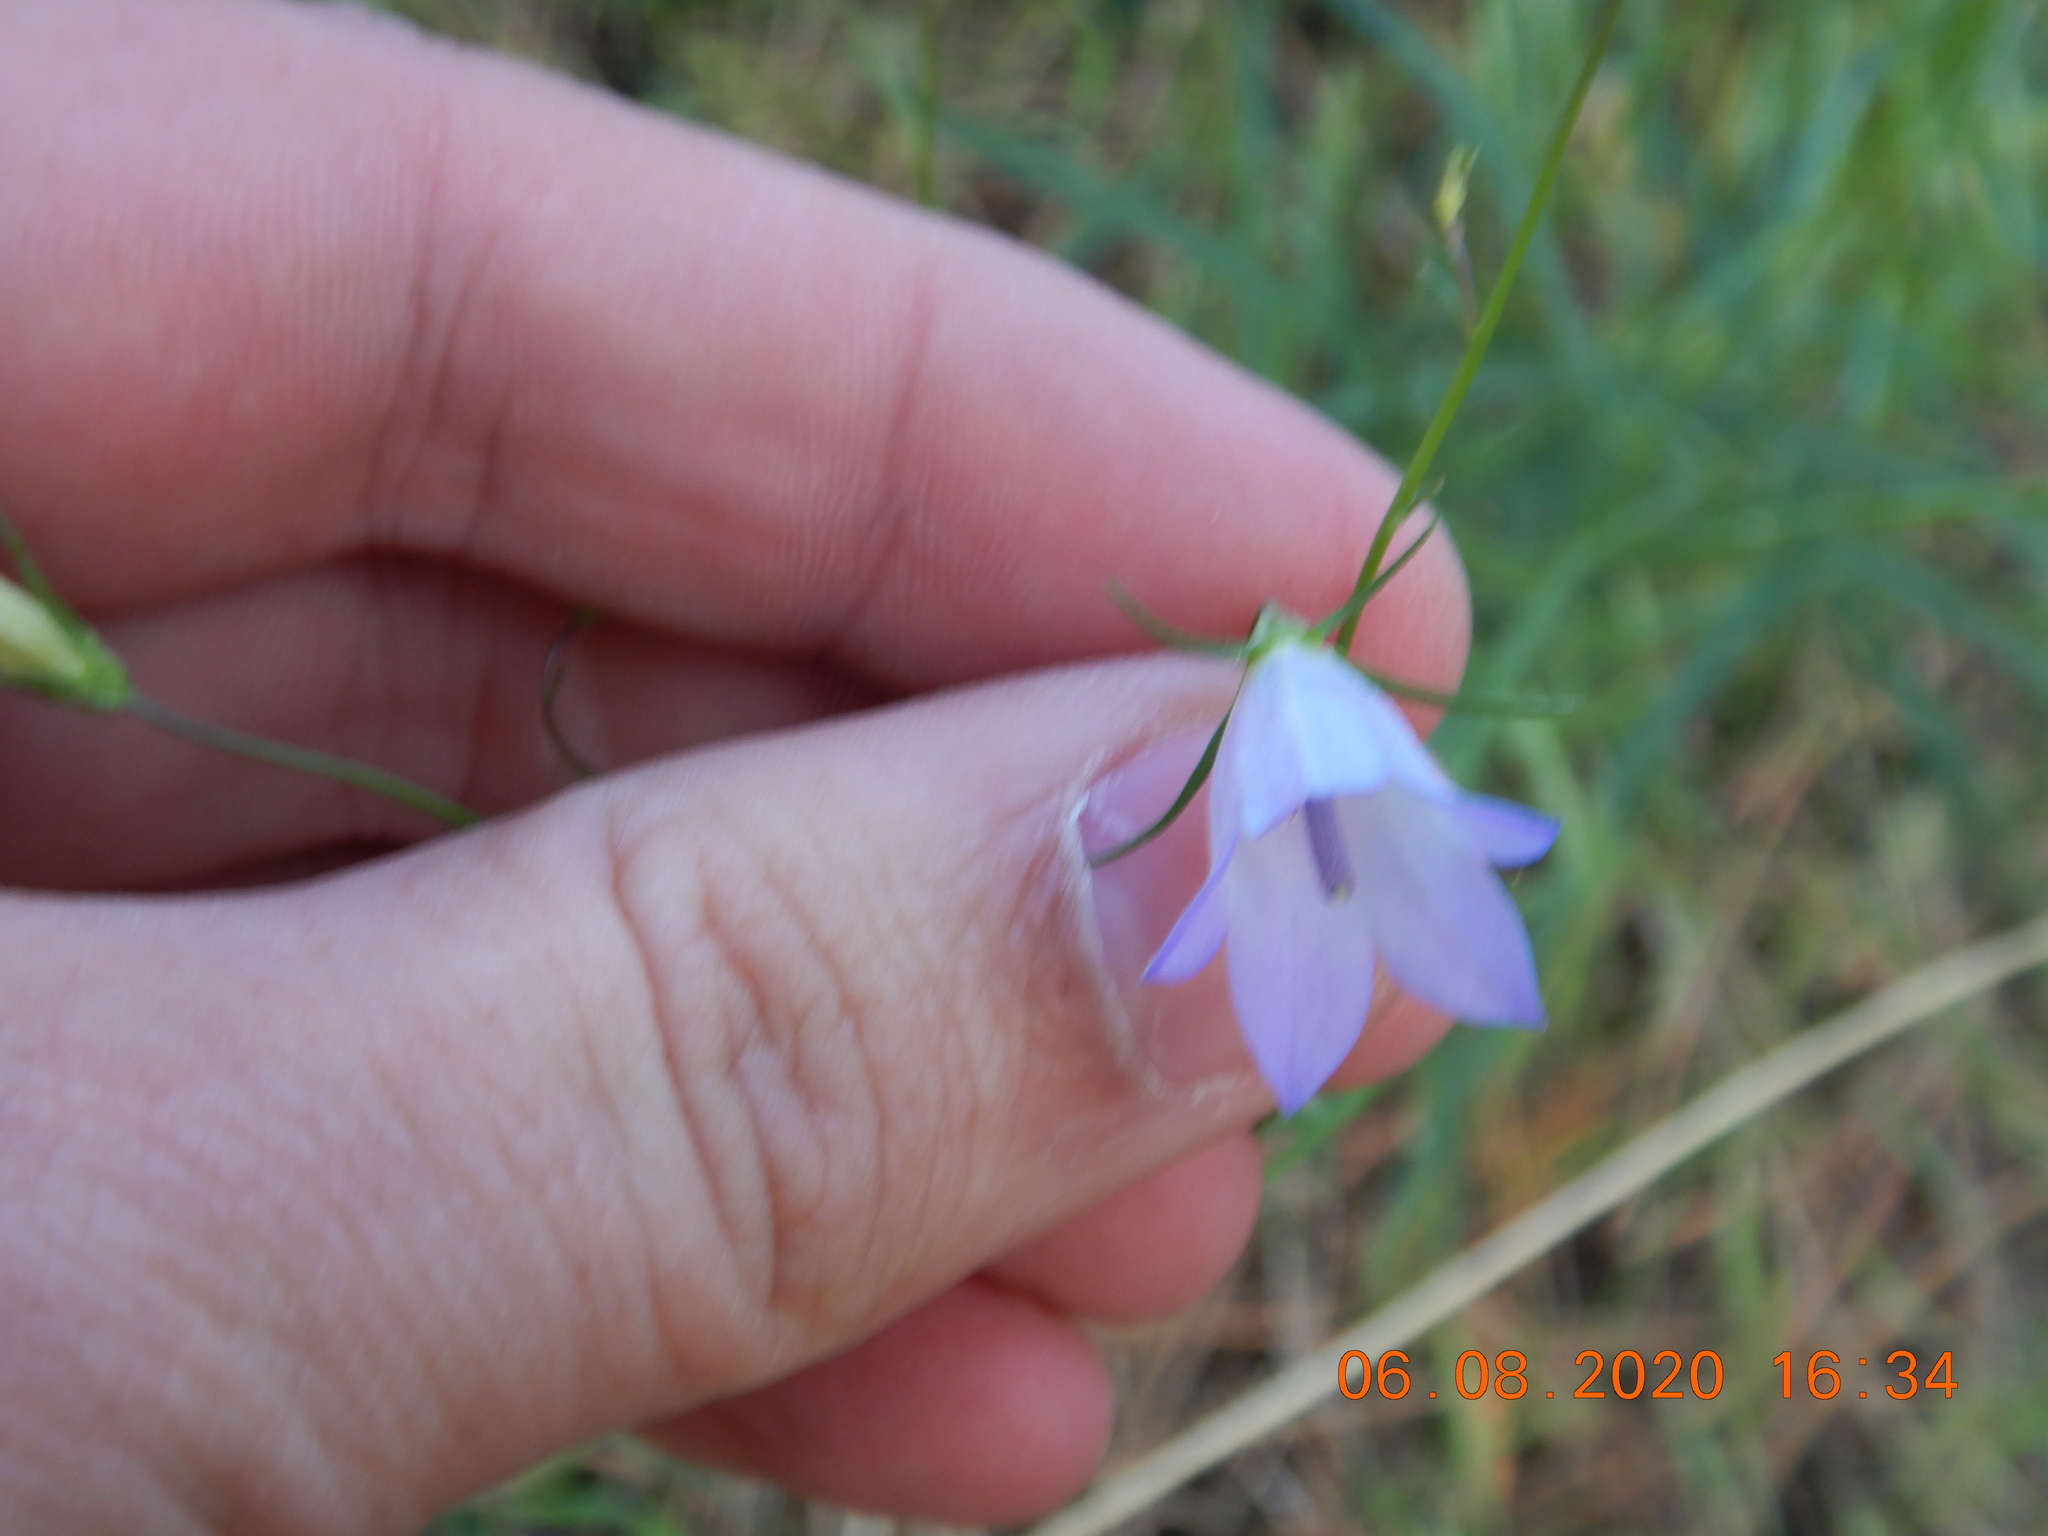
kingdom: Plantae
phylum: Tracheophyta
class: Magnoliopsida
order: Asterales
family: Campanulaceae
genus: Campanula
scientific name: Campanula petiolata
